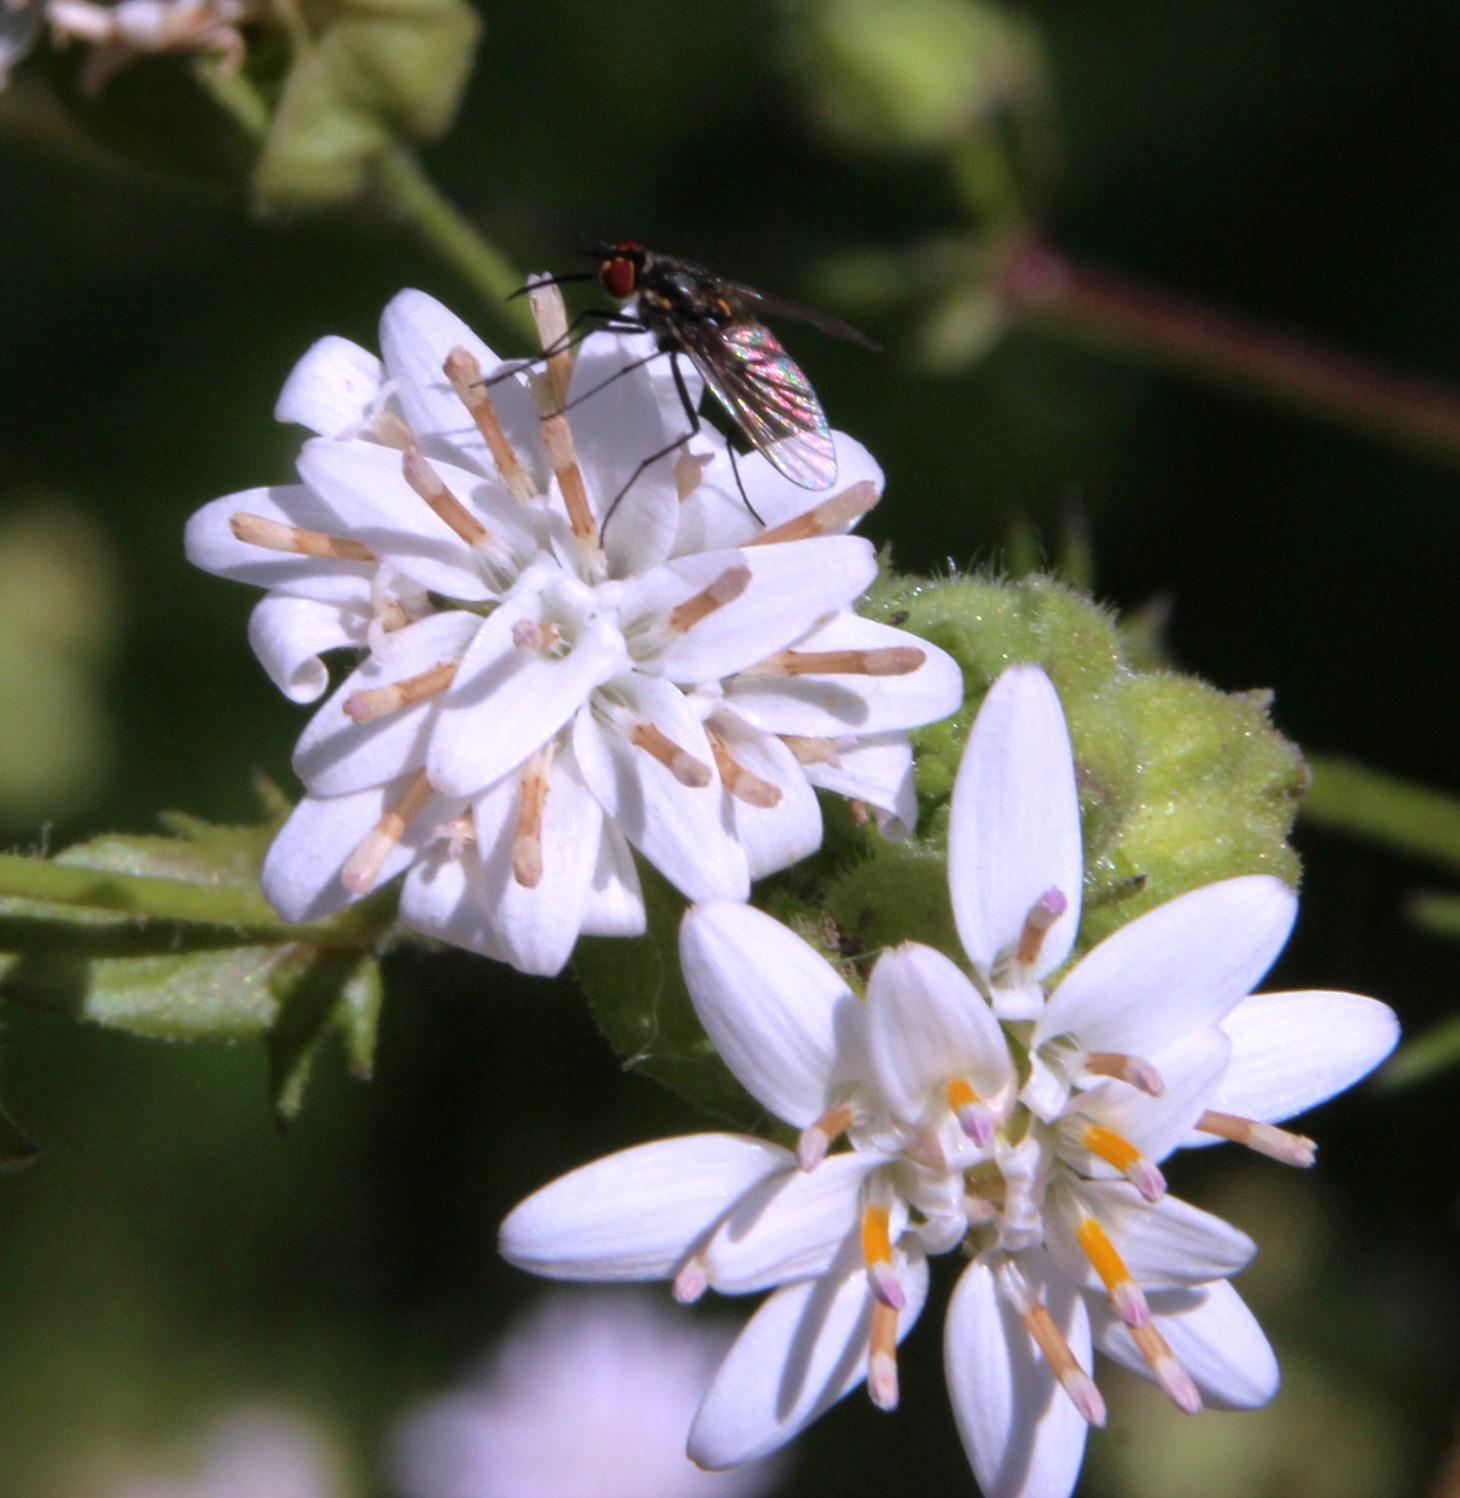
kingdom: Plantae
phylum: Tracheophyta
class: Magnoliopsida
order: Asterales
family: Asteraceae
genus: Moscharia
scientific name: Moscharia pinnatifida
